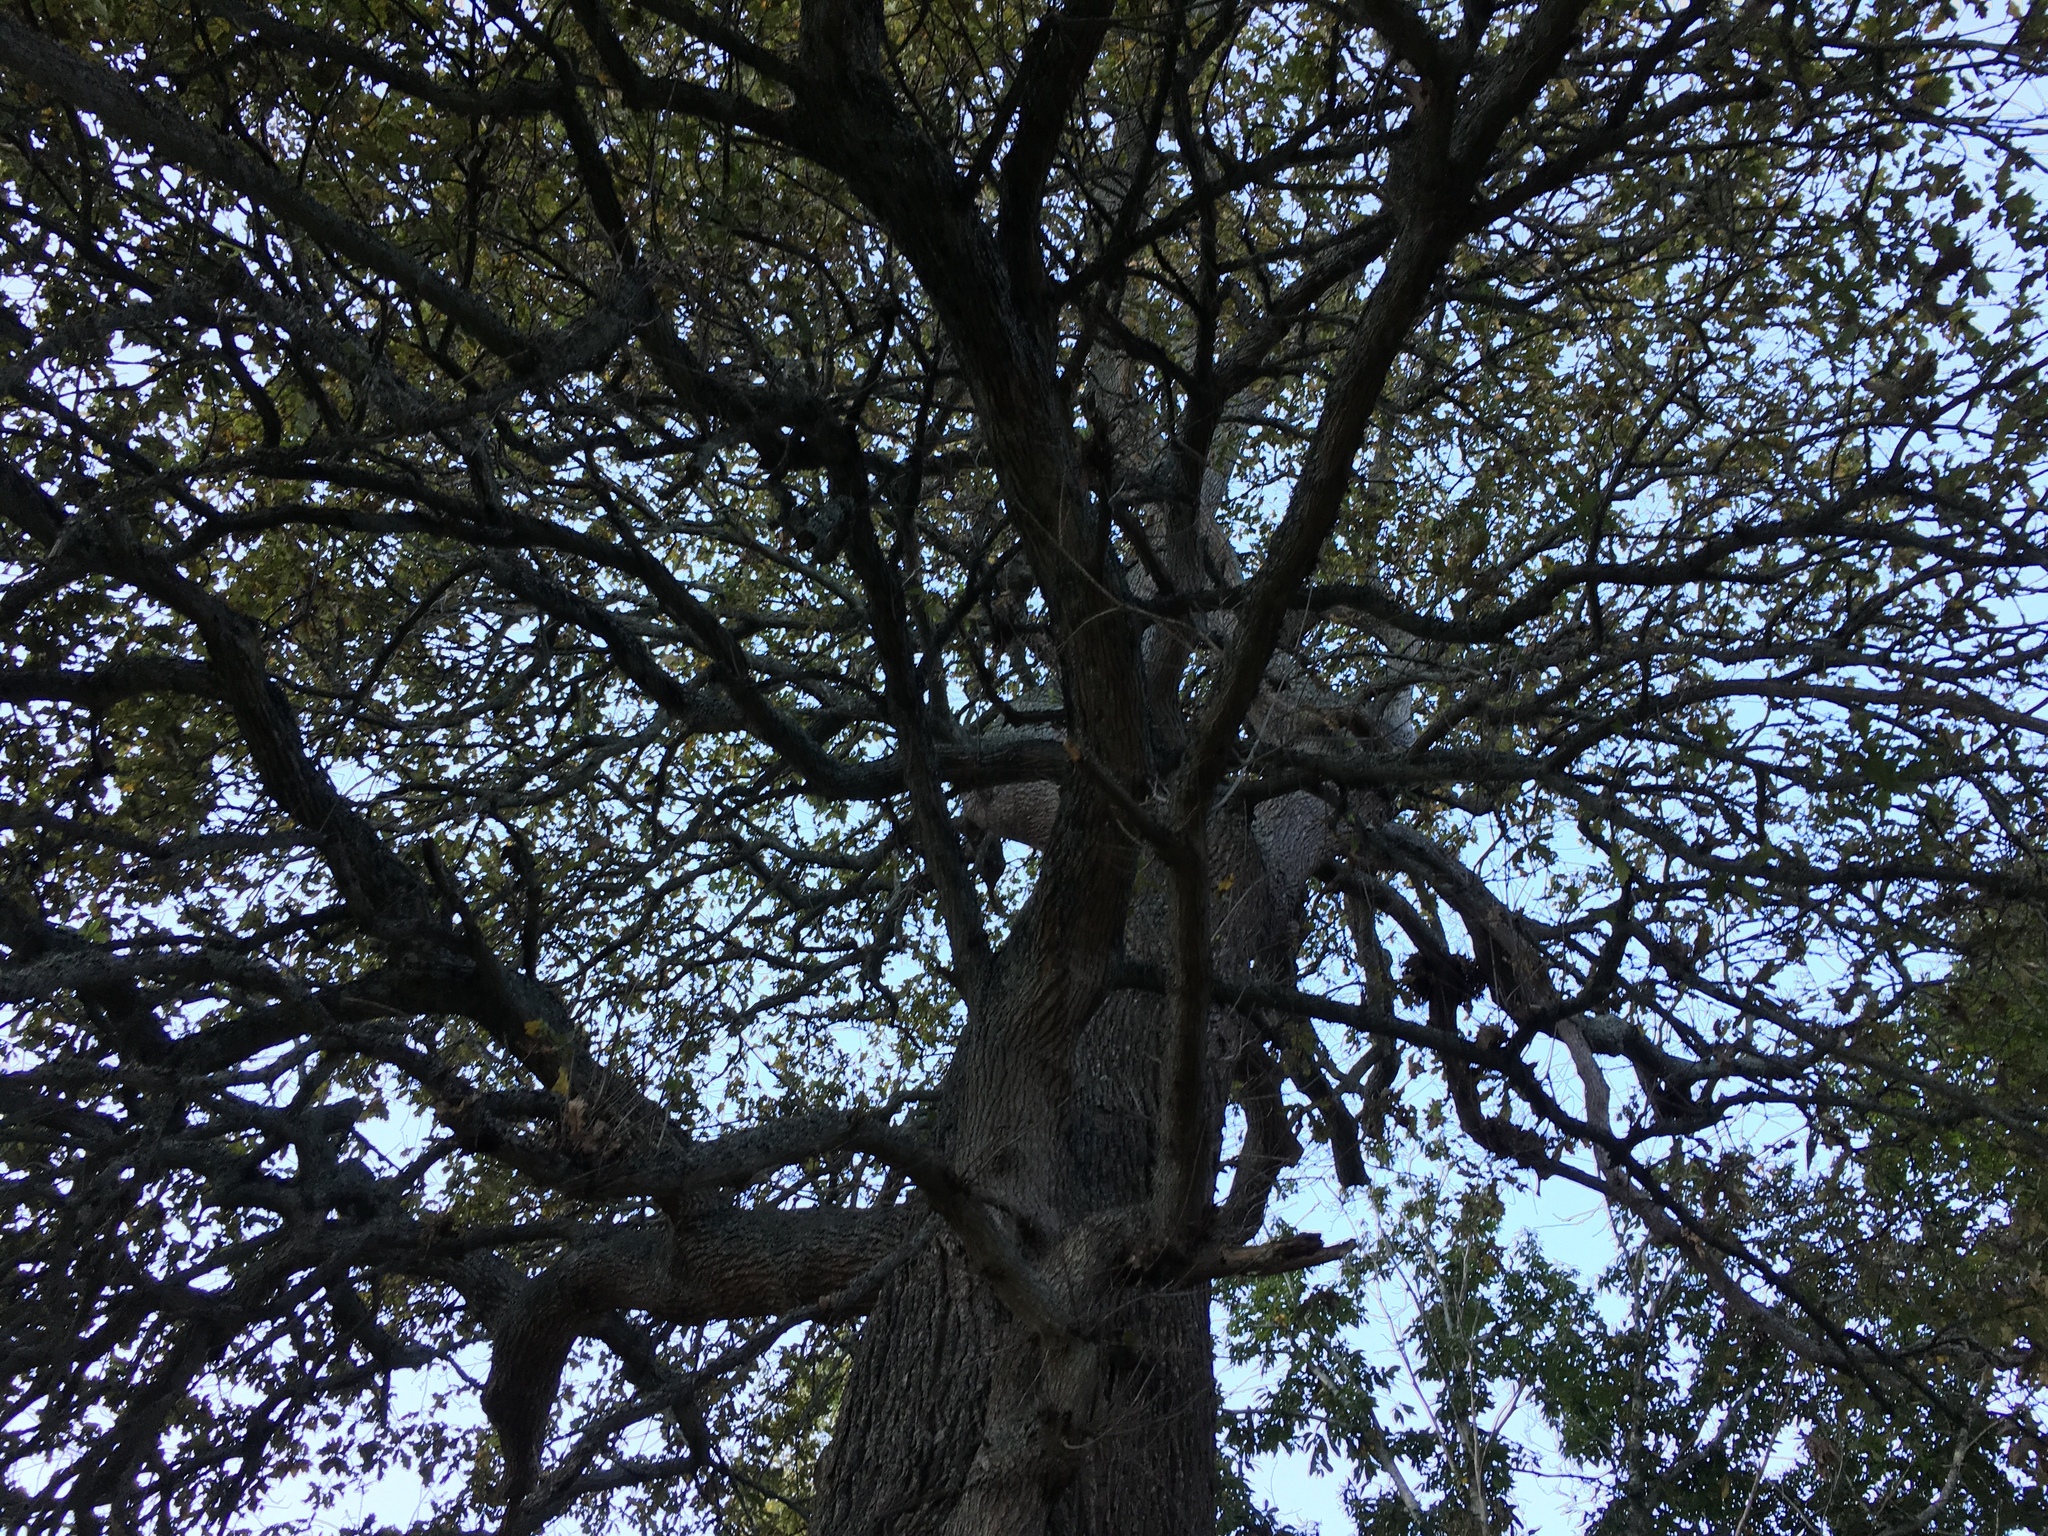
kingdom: Plantae
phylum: Tracheophyta
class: Magnoliopsida
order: Fagales
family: Fagaceae
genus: Quercus
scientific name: Quercus robur
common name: Pedunculate oak
